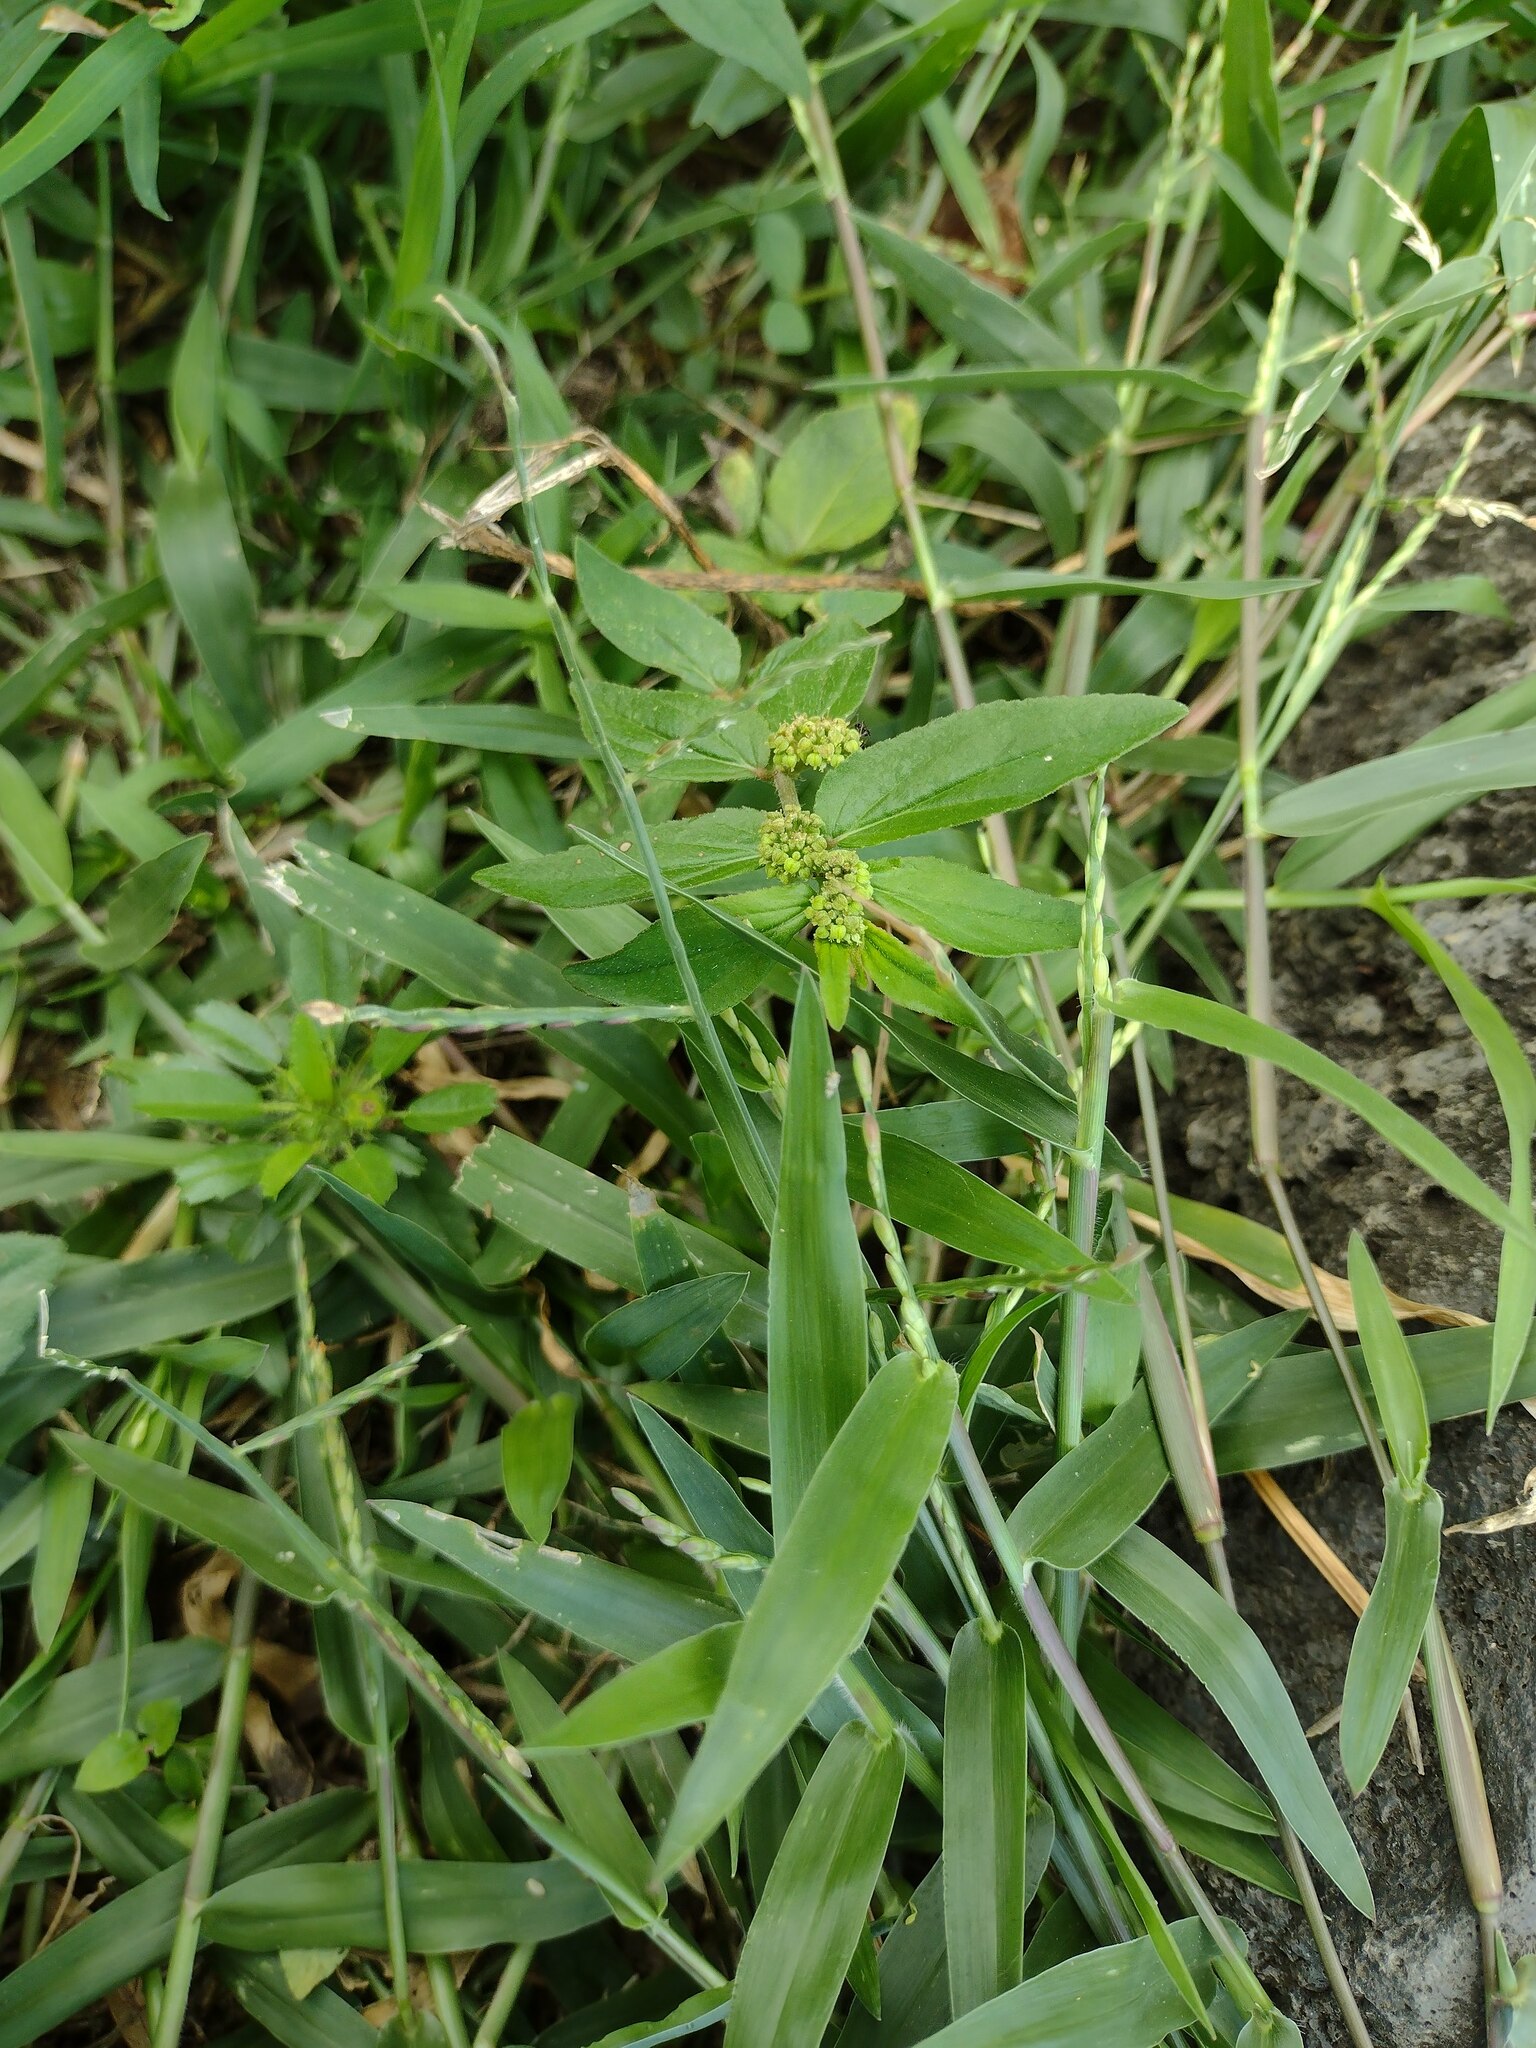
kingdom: Plantae
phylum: Tracheophyta
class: Magnoliopsida
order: Malpighiales
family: Euphorbiaceae
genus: Euphorbia
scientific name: Euphorbia hirta
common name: Pillpod sandmat
